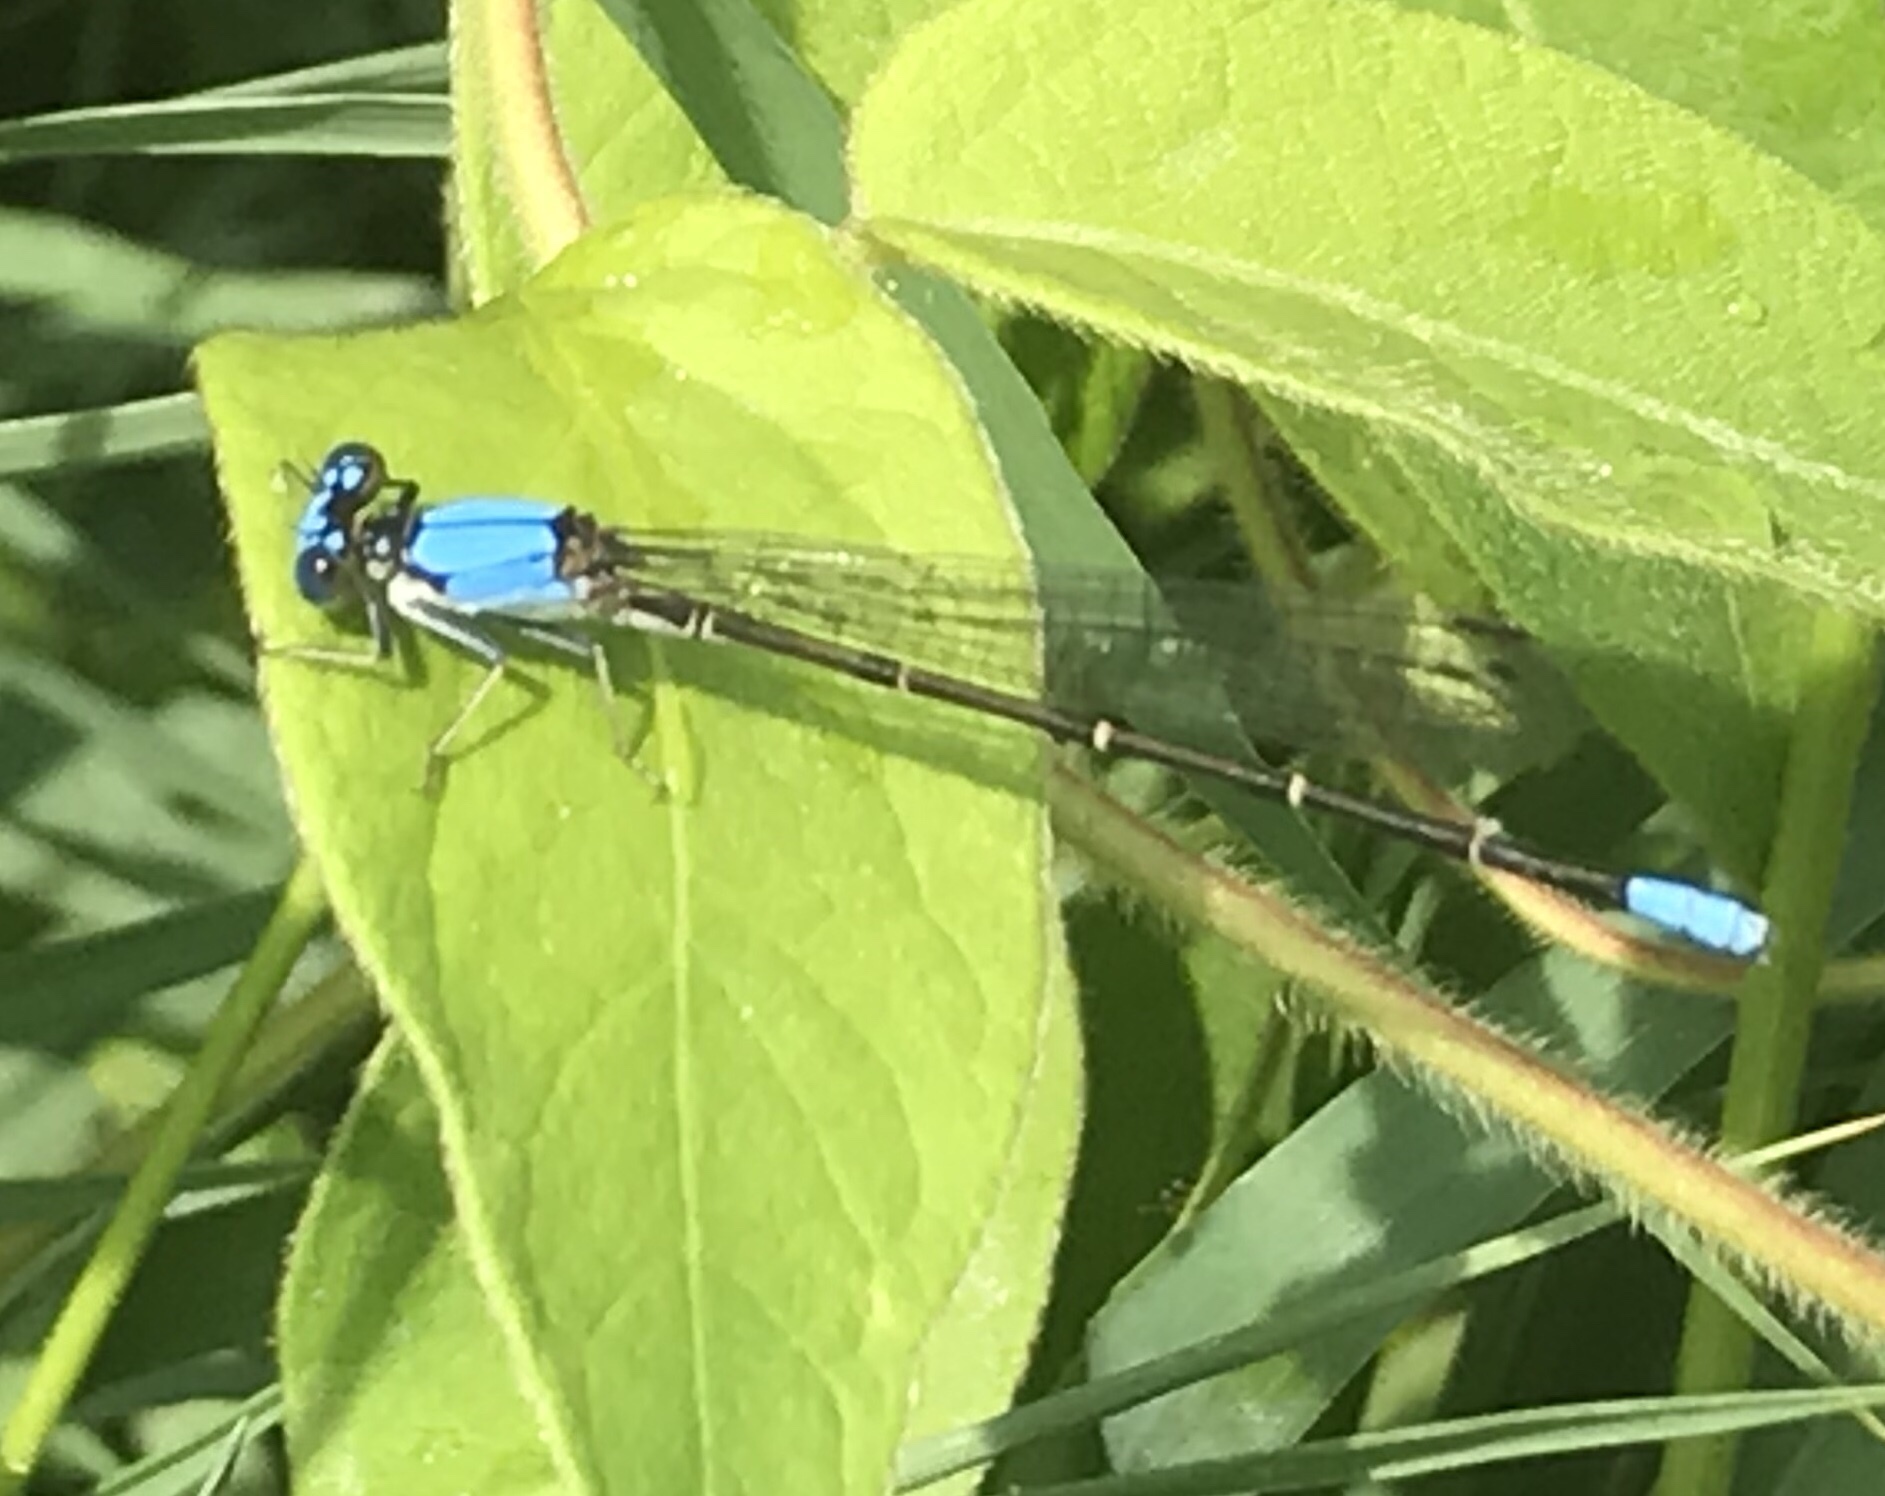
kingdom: Animalia
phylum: Arthropoda
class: Insecta
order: Odonata
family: Coenagrionidae
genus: Argia
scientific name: Argia apicalis
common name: Blue-fronted dancer
